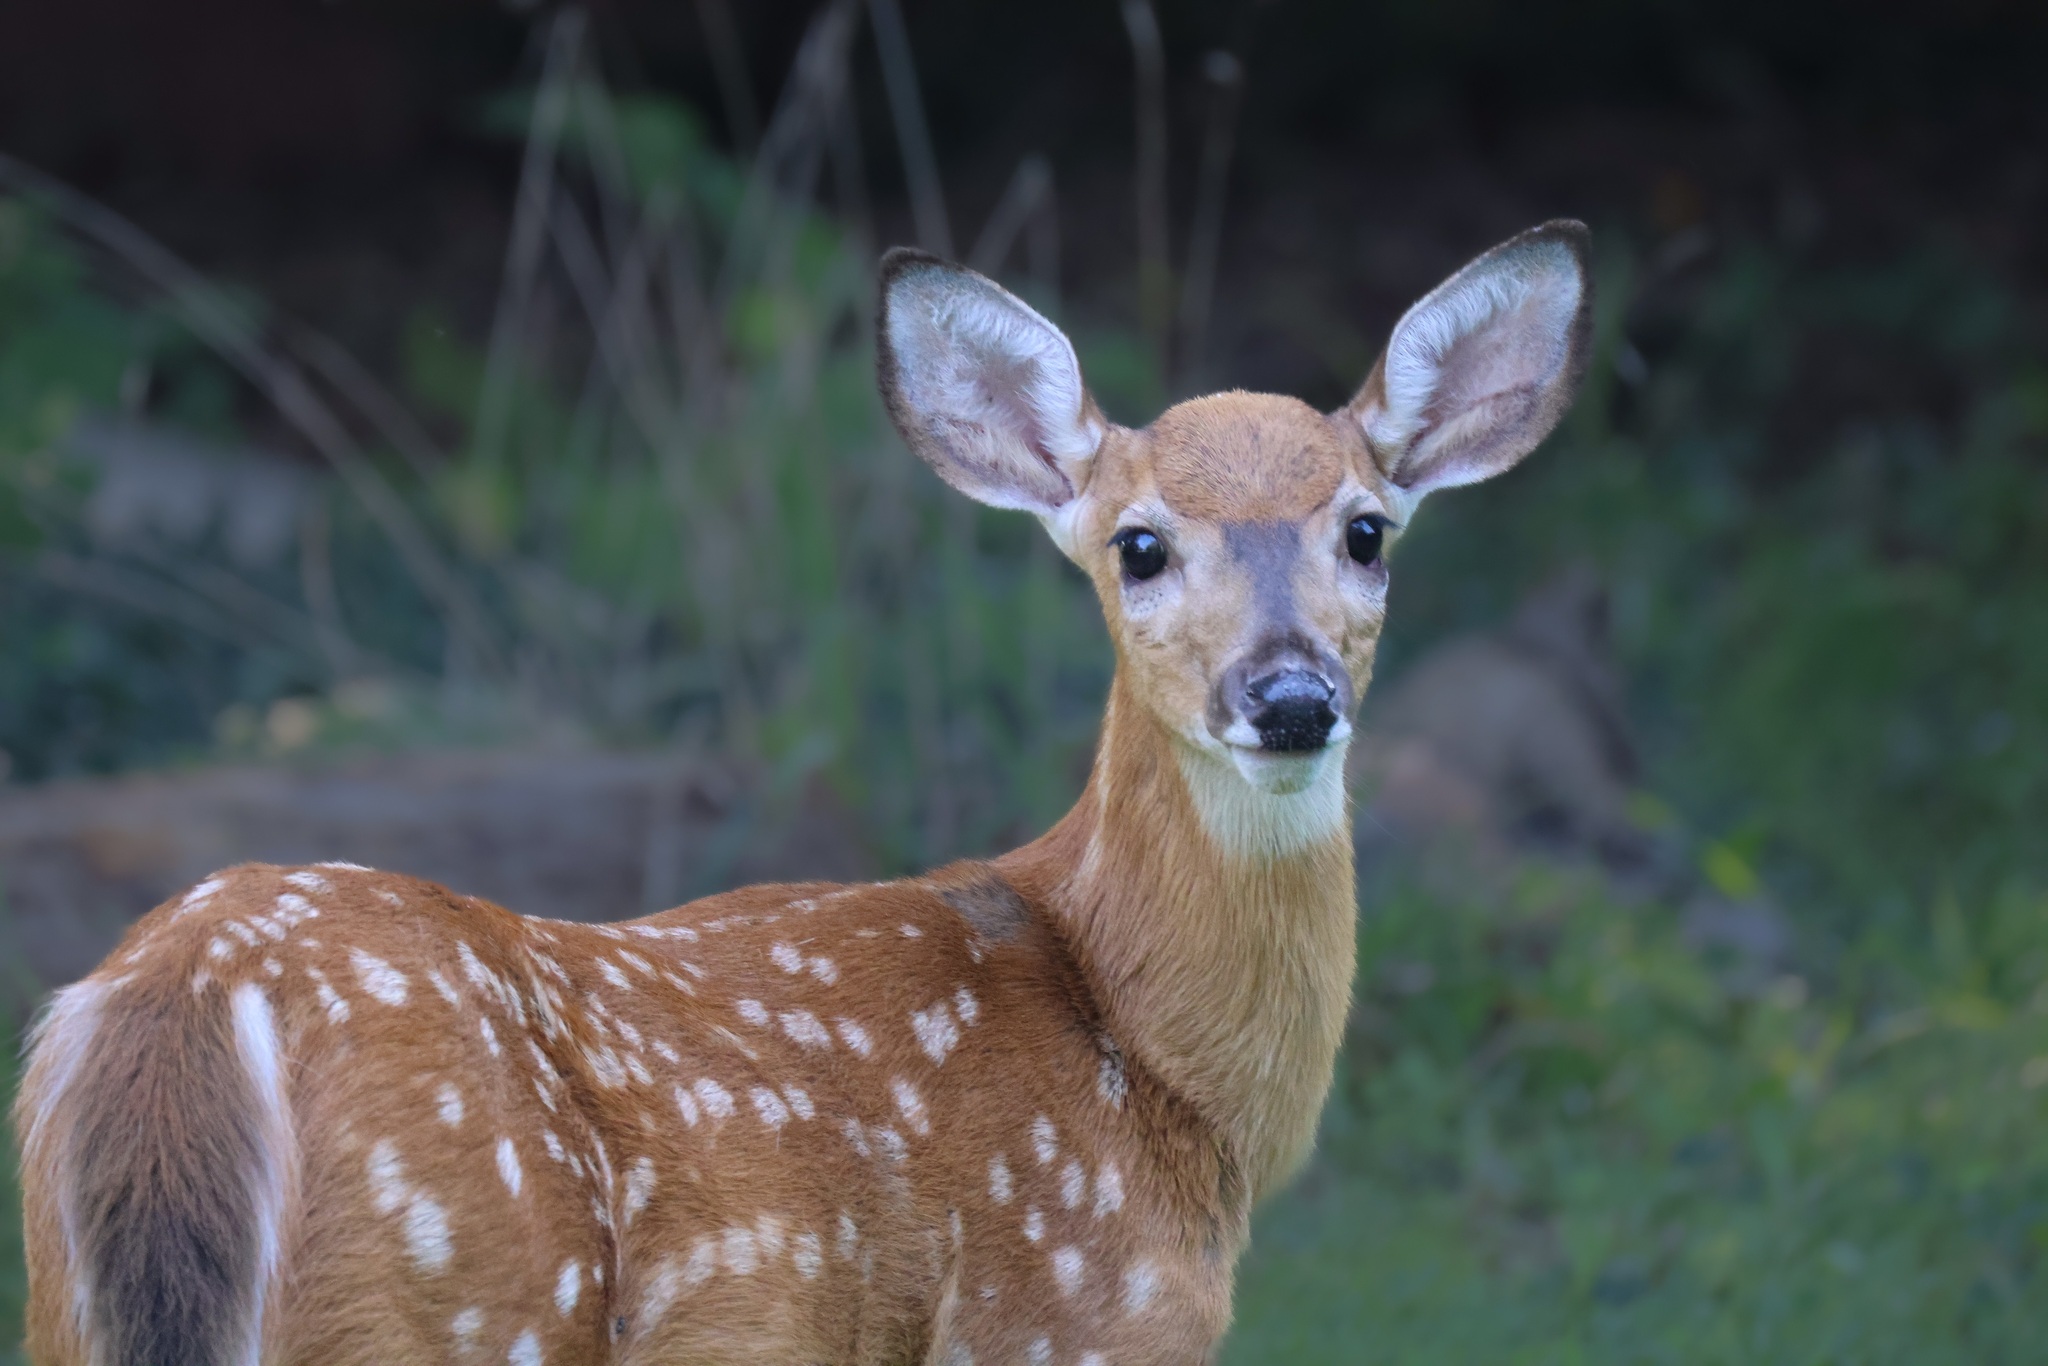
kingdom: Animalia
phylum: Chordata
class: Mammalia
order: Artiodactyla
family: Cervidae
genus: Odocoileus
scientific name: Odocoileus virginianus
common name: White-tailed deer
